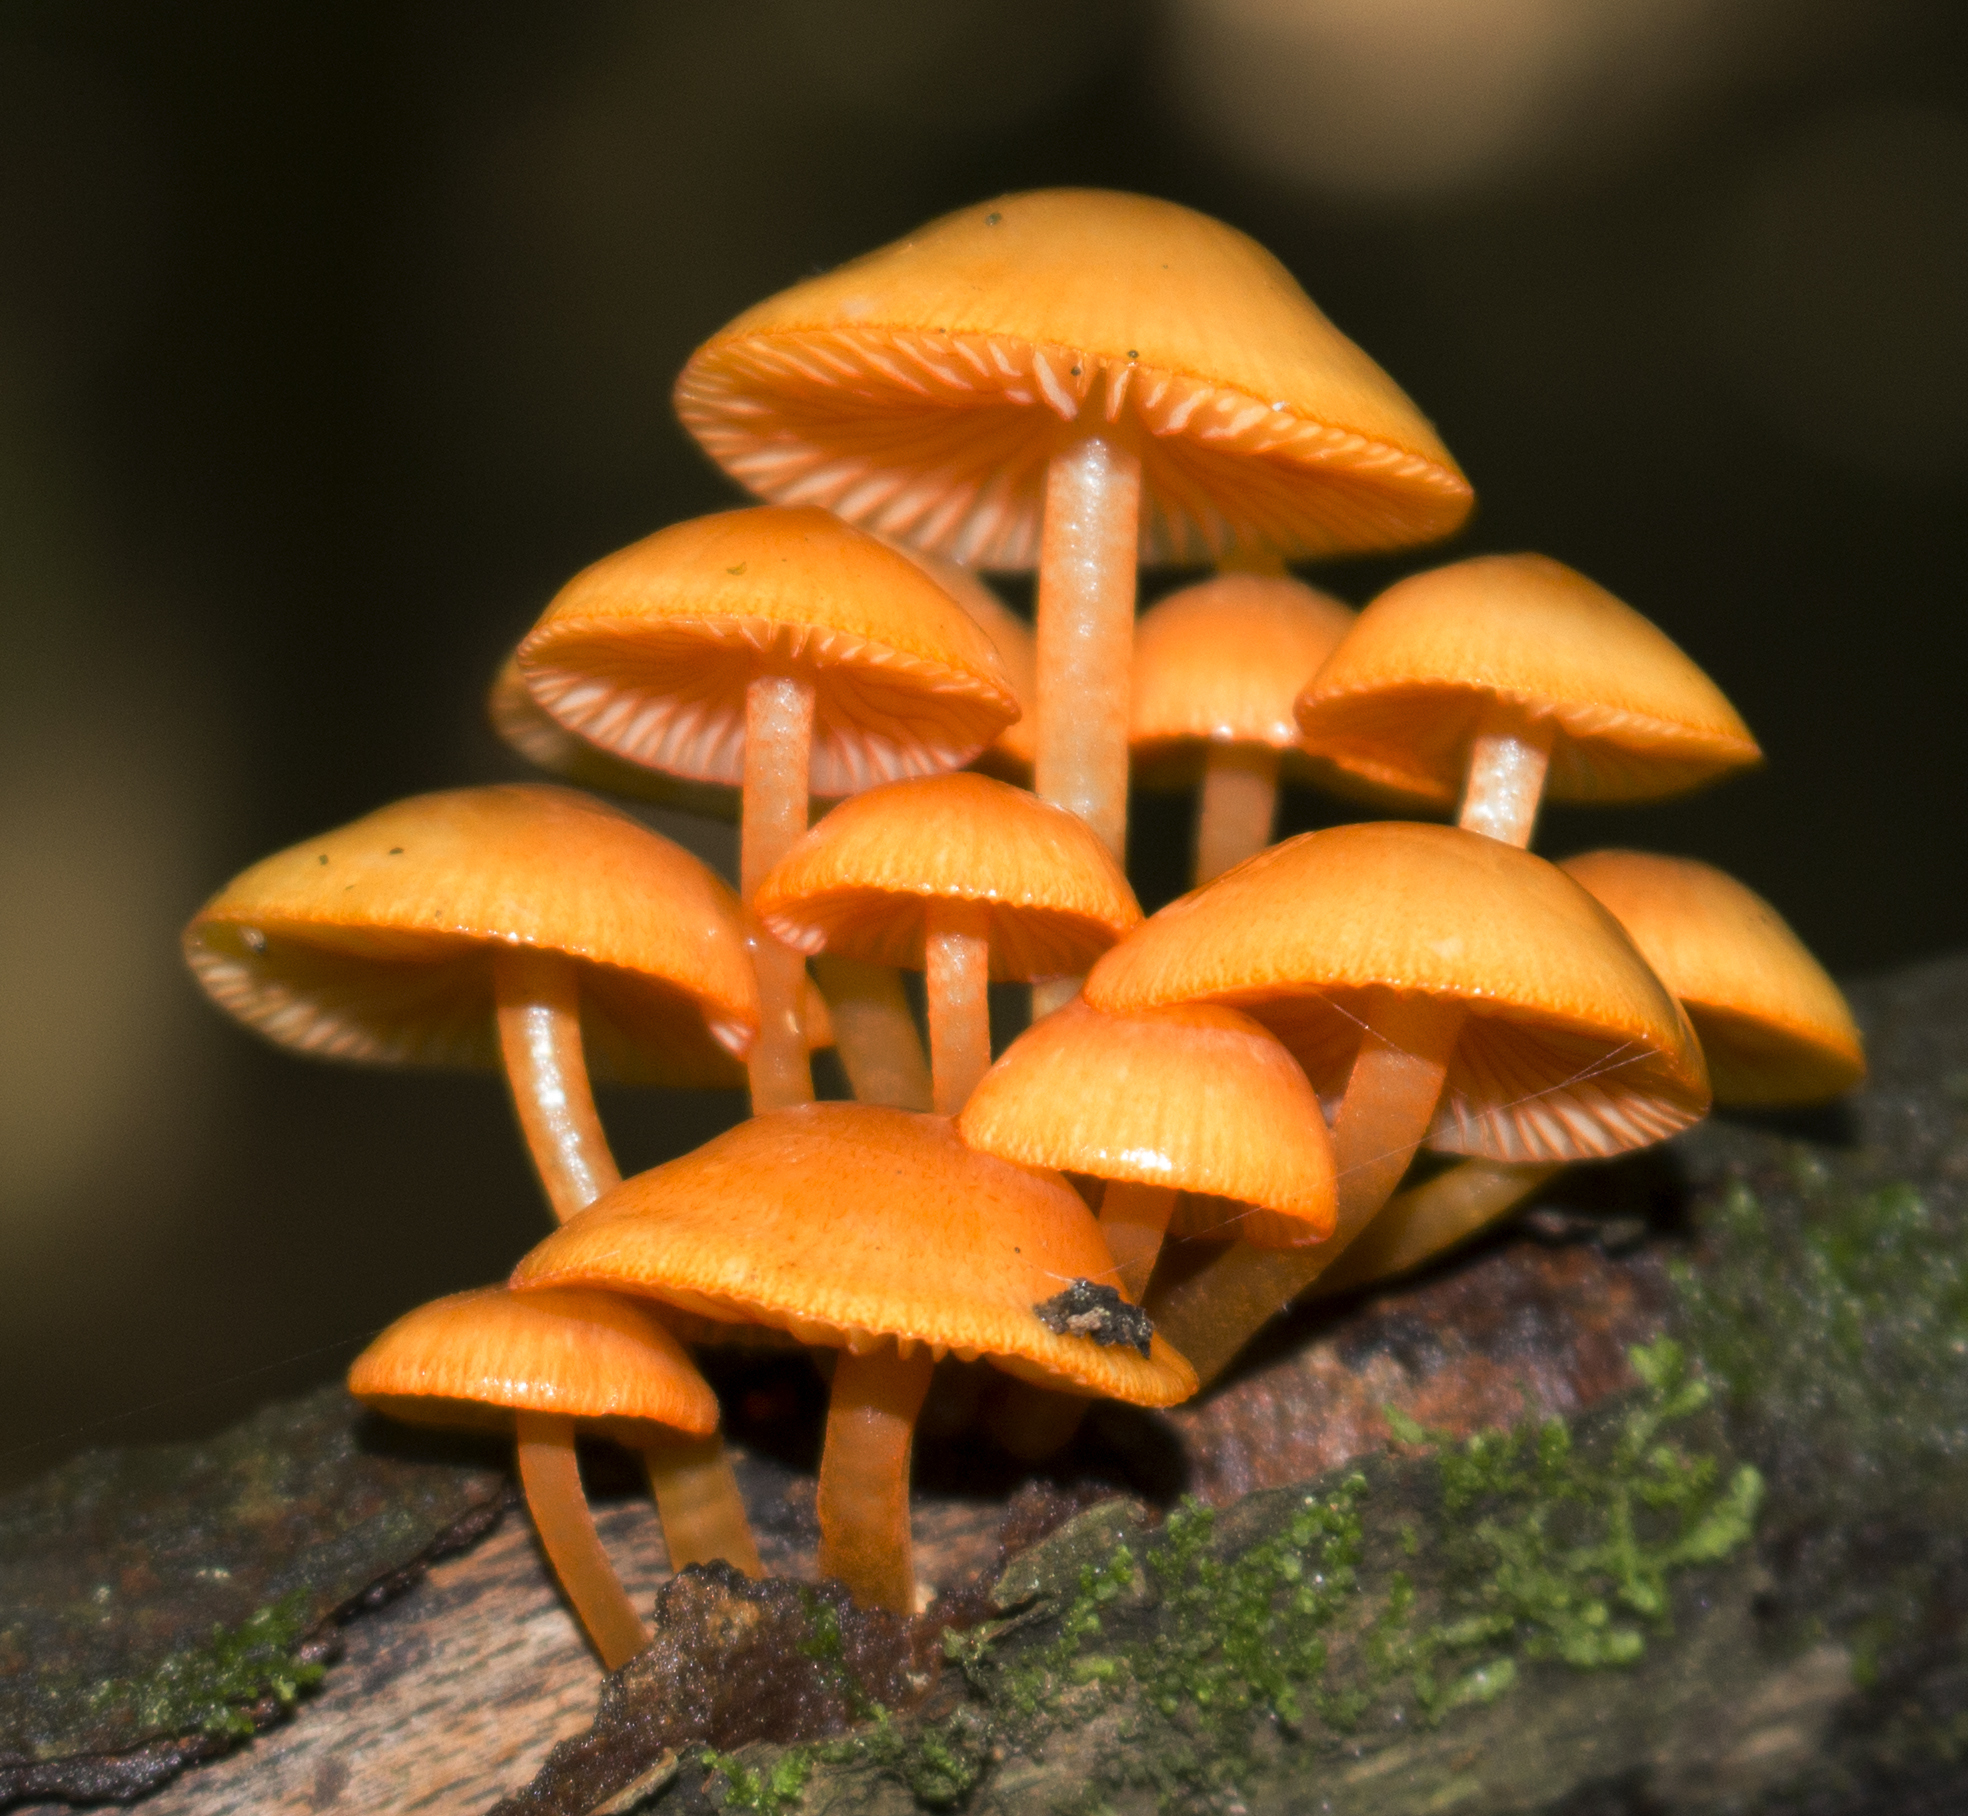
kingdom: Fungi
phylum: Basidiomycota
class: Agaricomycetes
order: Agaricales
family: Mycenaceae
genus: Mycena
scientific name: Mycena leaiana
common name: Orange mycena
